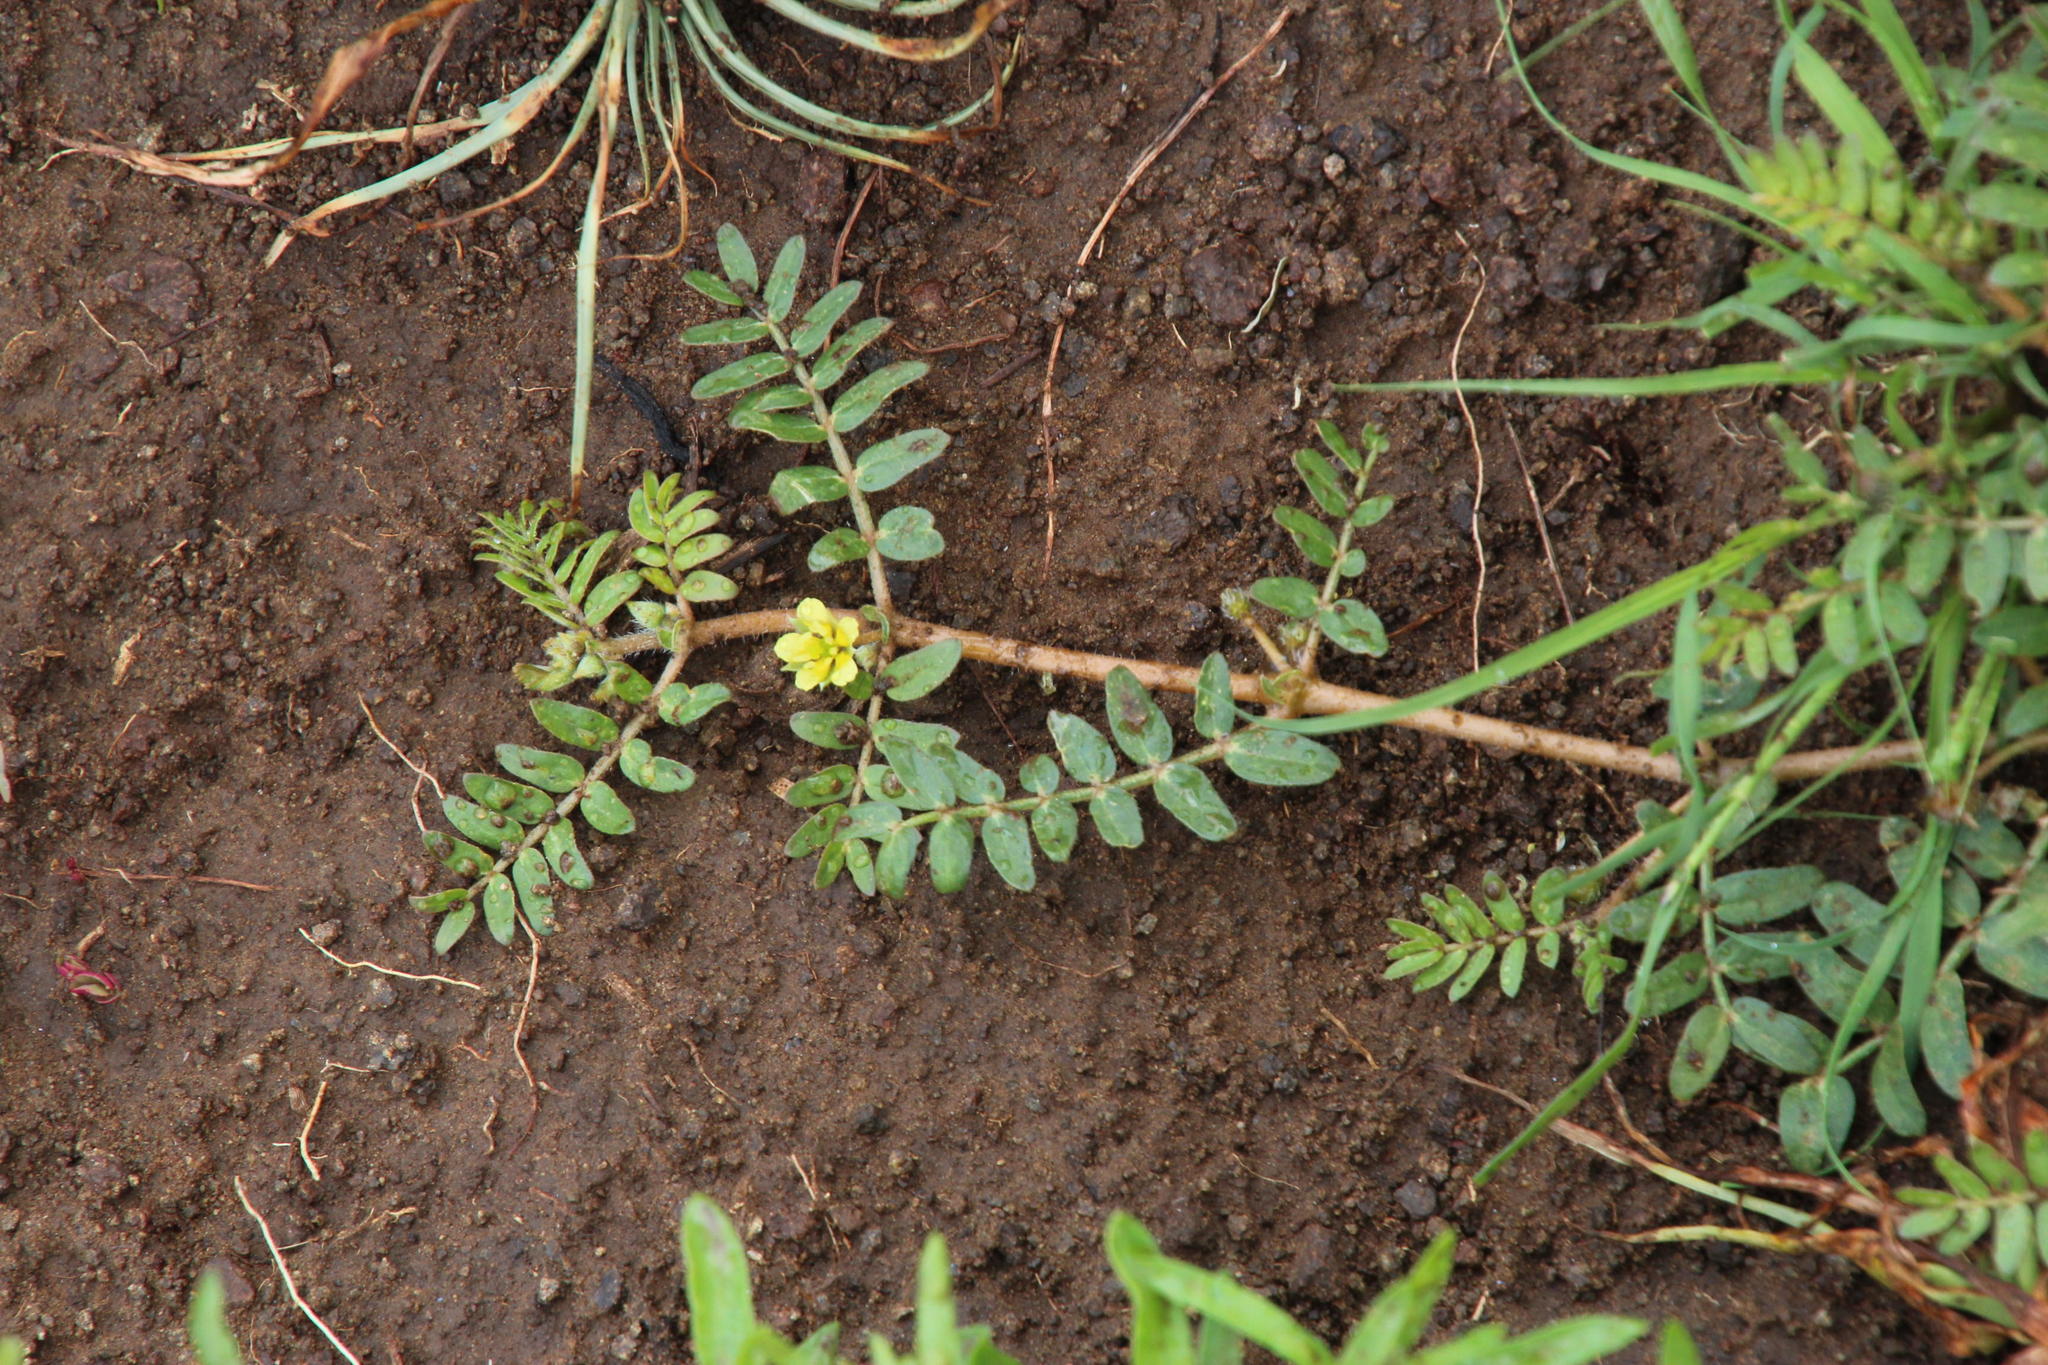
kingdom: Plantae
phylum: Tracheophyta
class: Magnoliopsida
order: Zygophyllales
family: Zygophyllaceae
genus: Tribulus
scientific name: Tribulus terrestris
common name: Puncturevine
